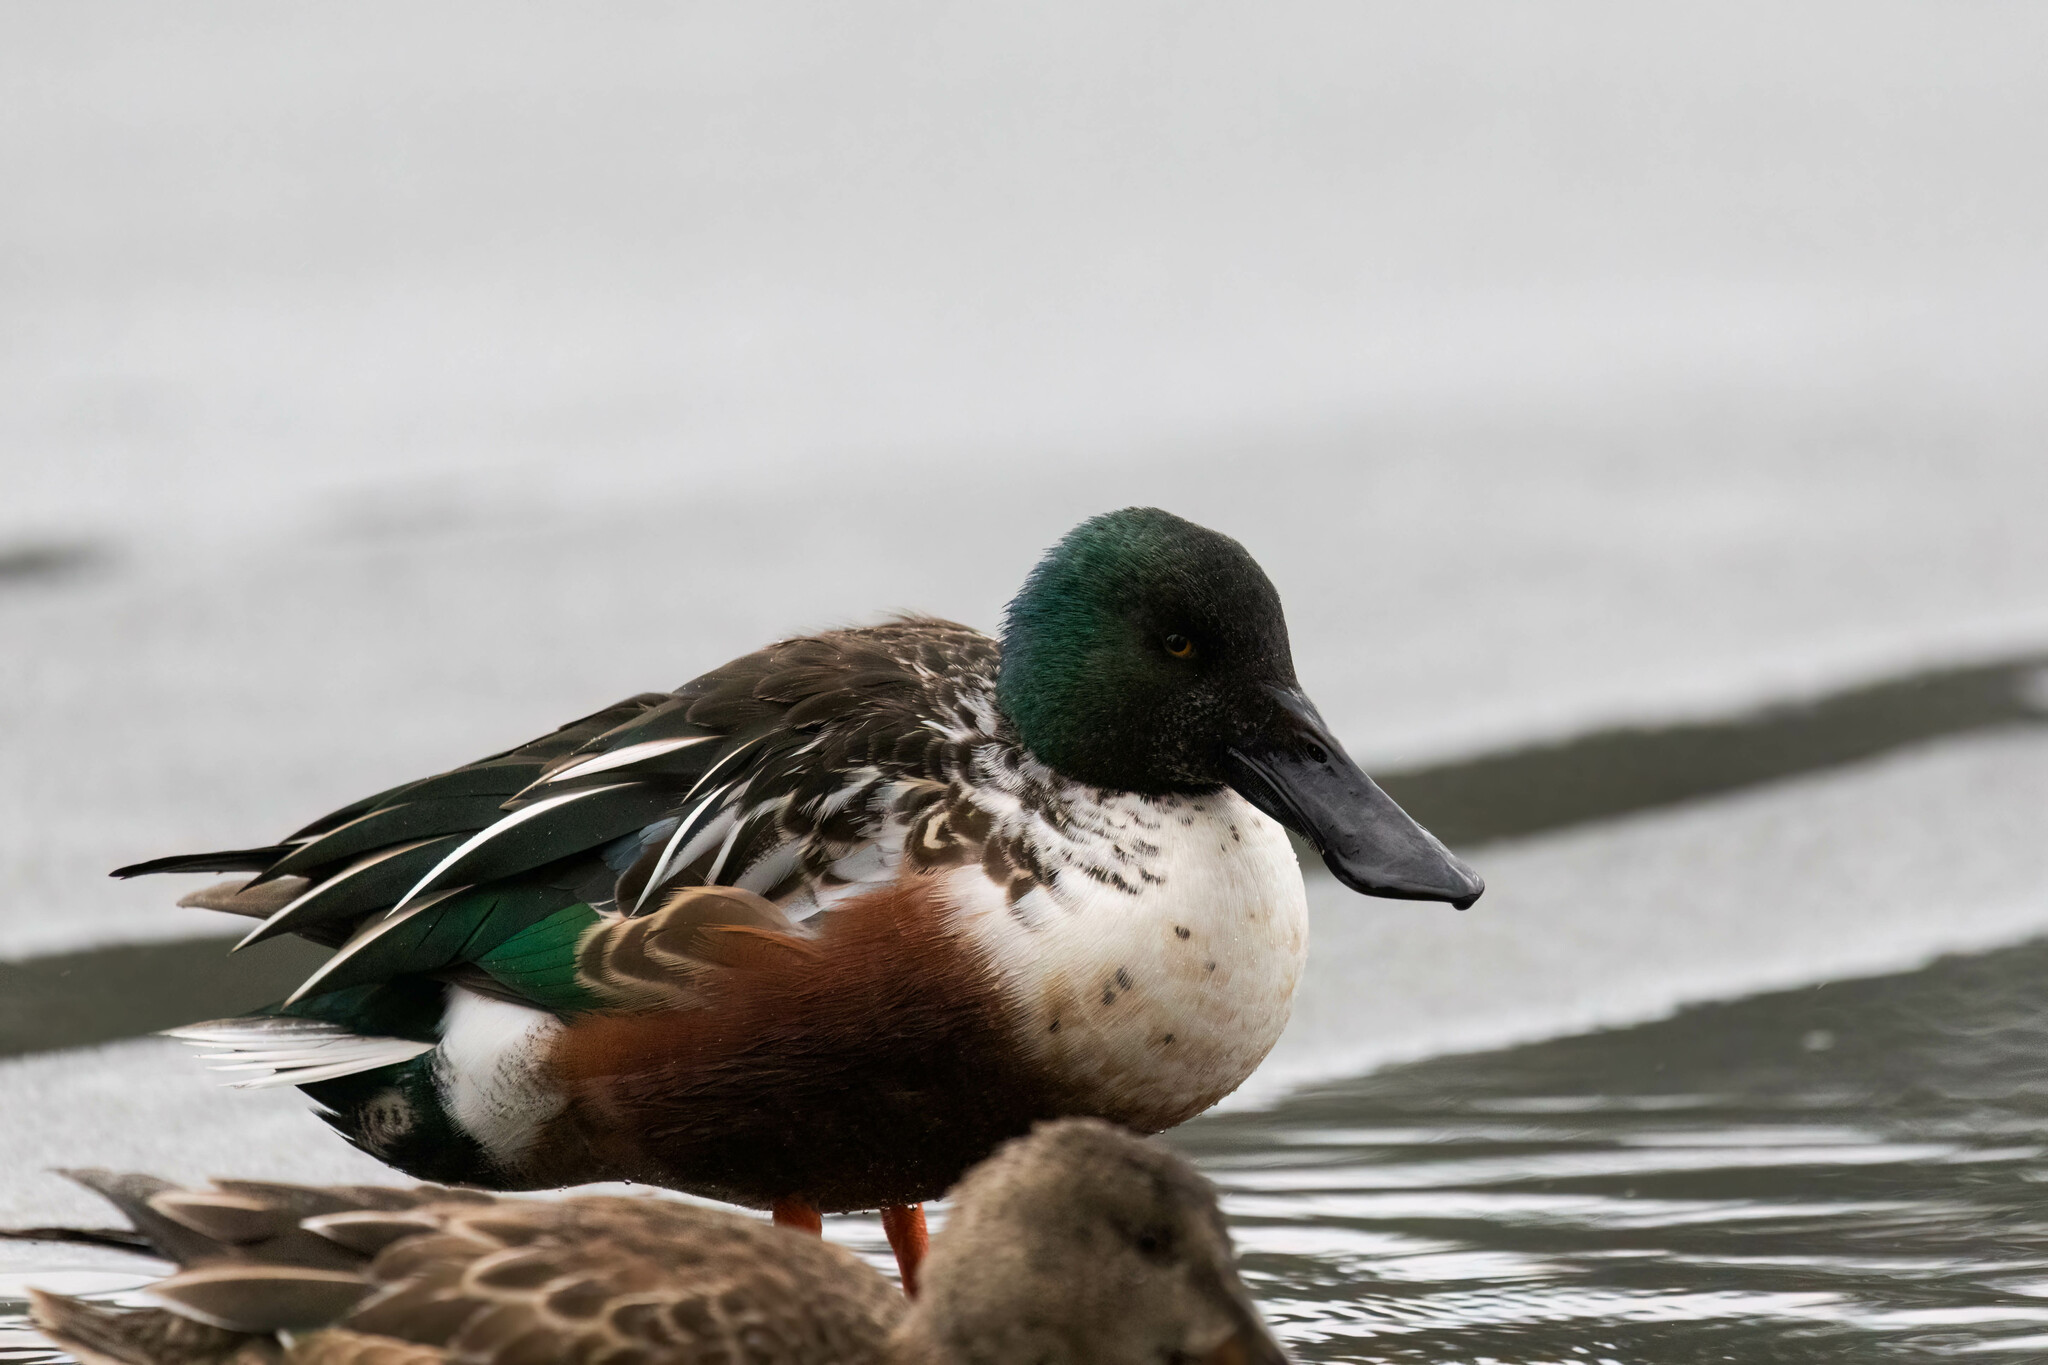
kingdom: Animalia
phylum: Chordata
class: Aves
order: Anseriformes
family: Anatidae
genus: Spatula
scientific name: Spatula clypeata
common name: Northern shoveler
